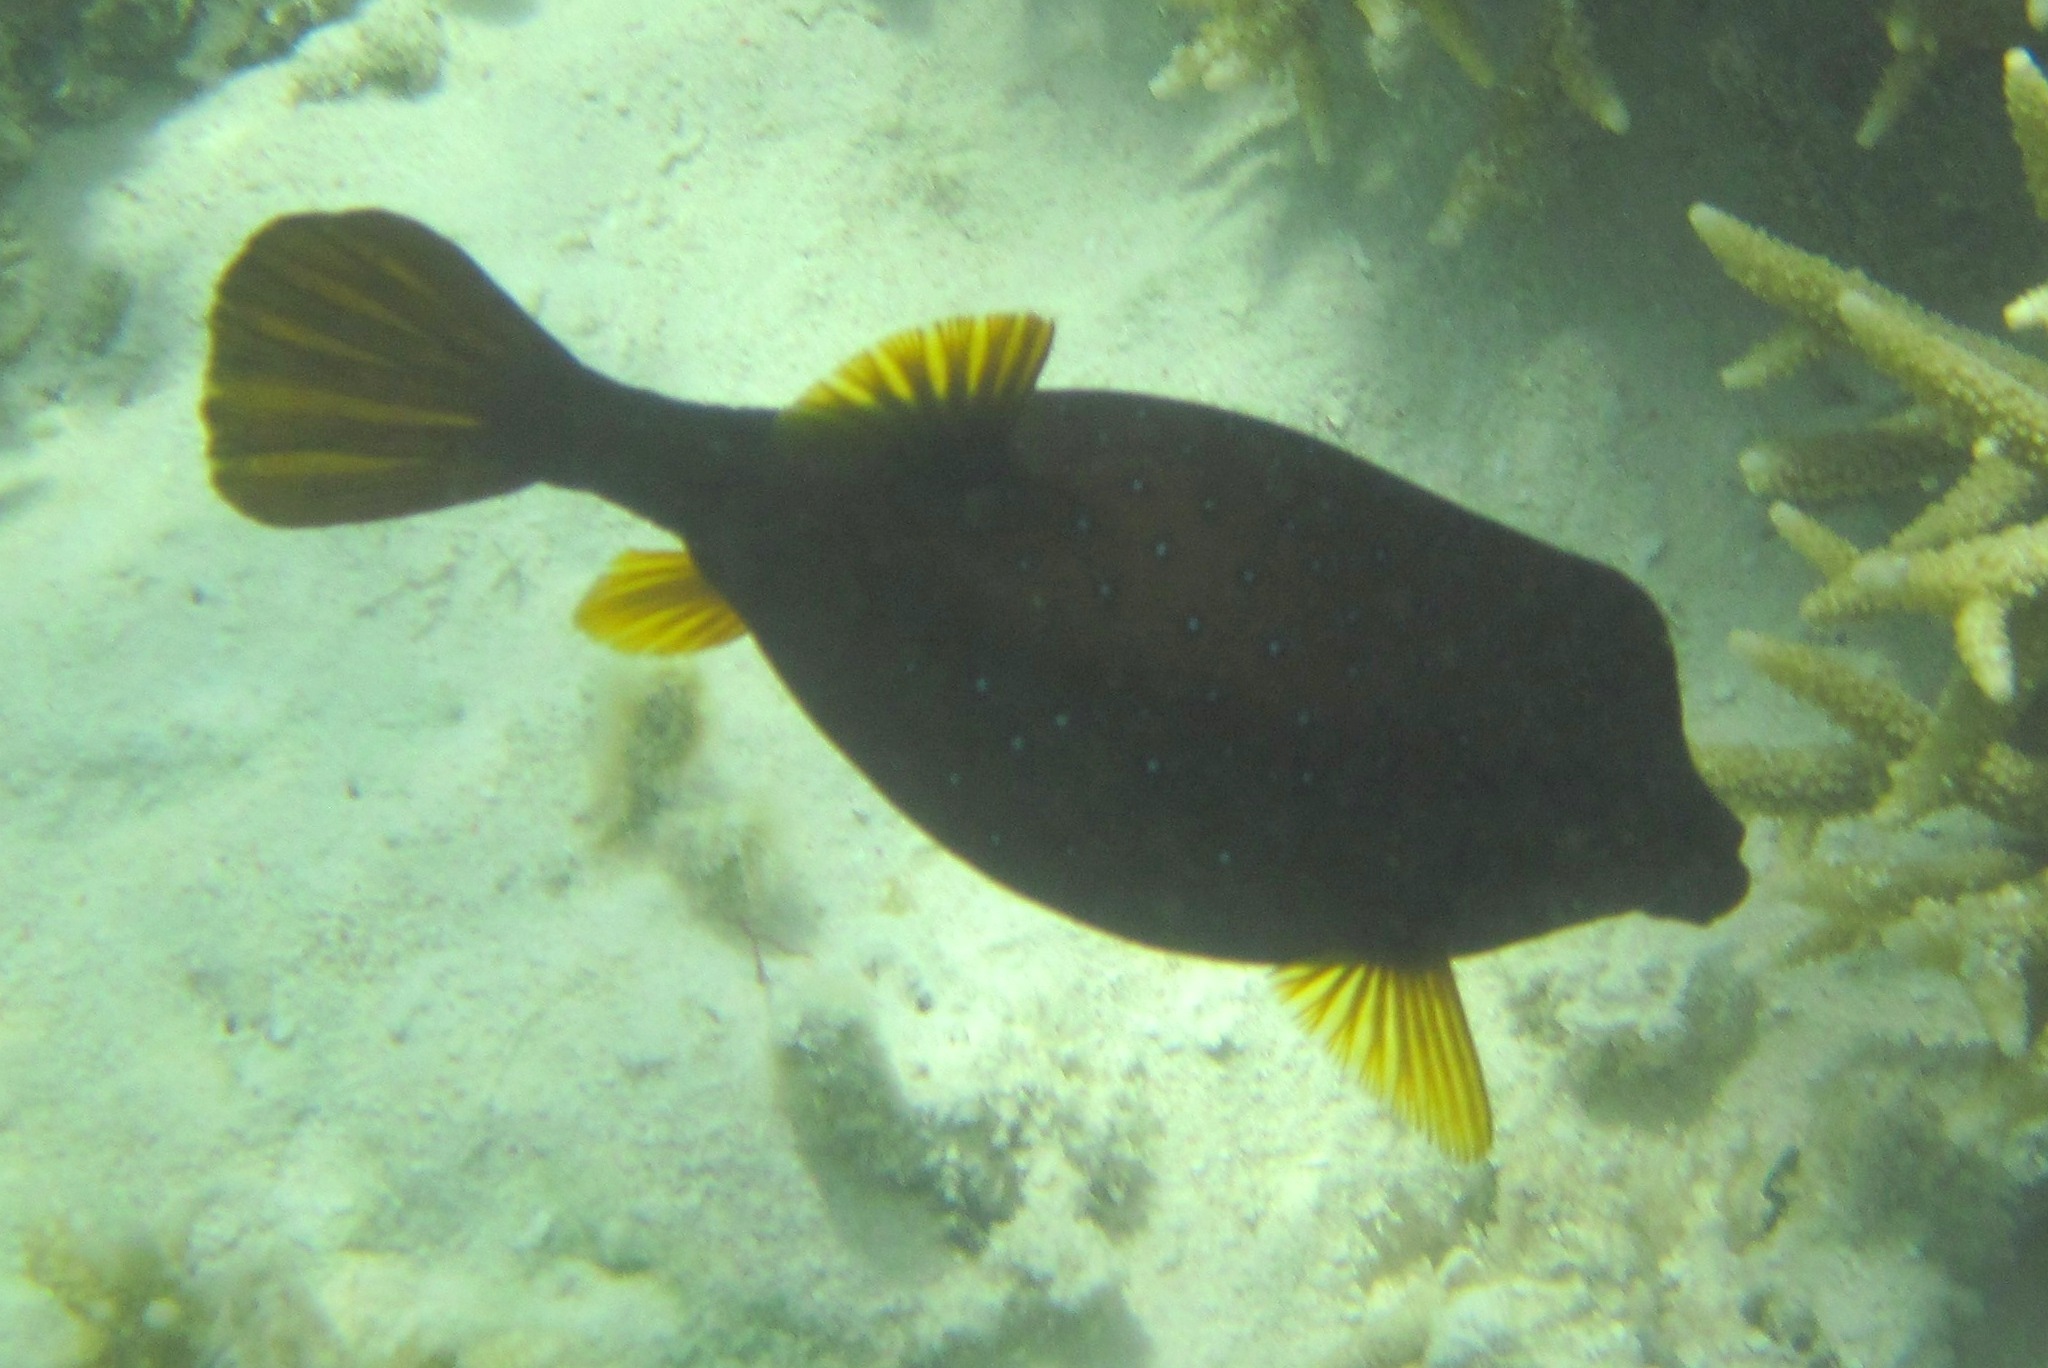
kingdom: Animalia
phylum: Chordata
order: Tetraodontiformes
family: Ostraciidae
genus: Ostracion
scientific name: Ostracion cubicus
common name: Cube trunkfish
